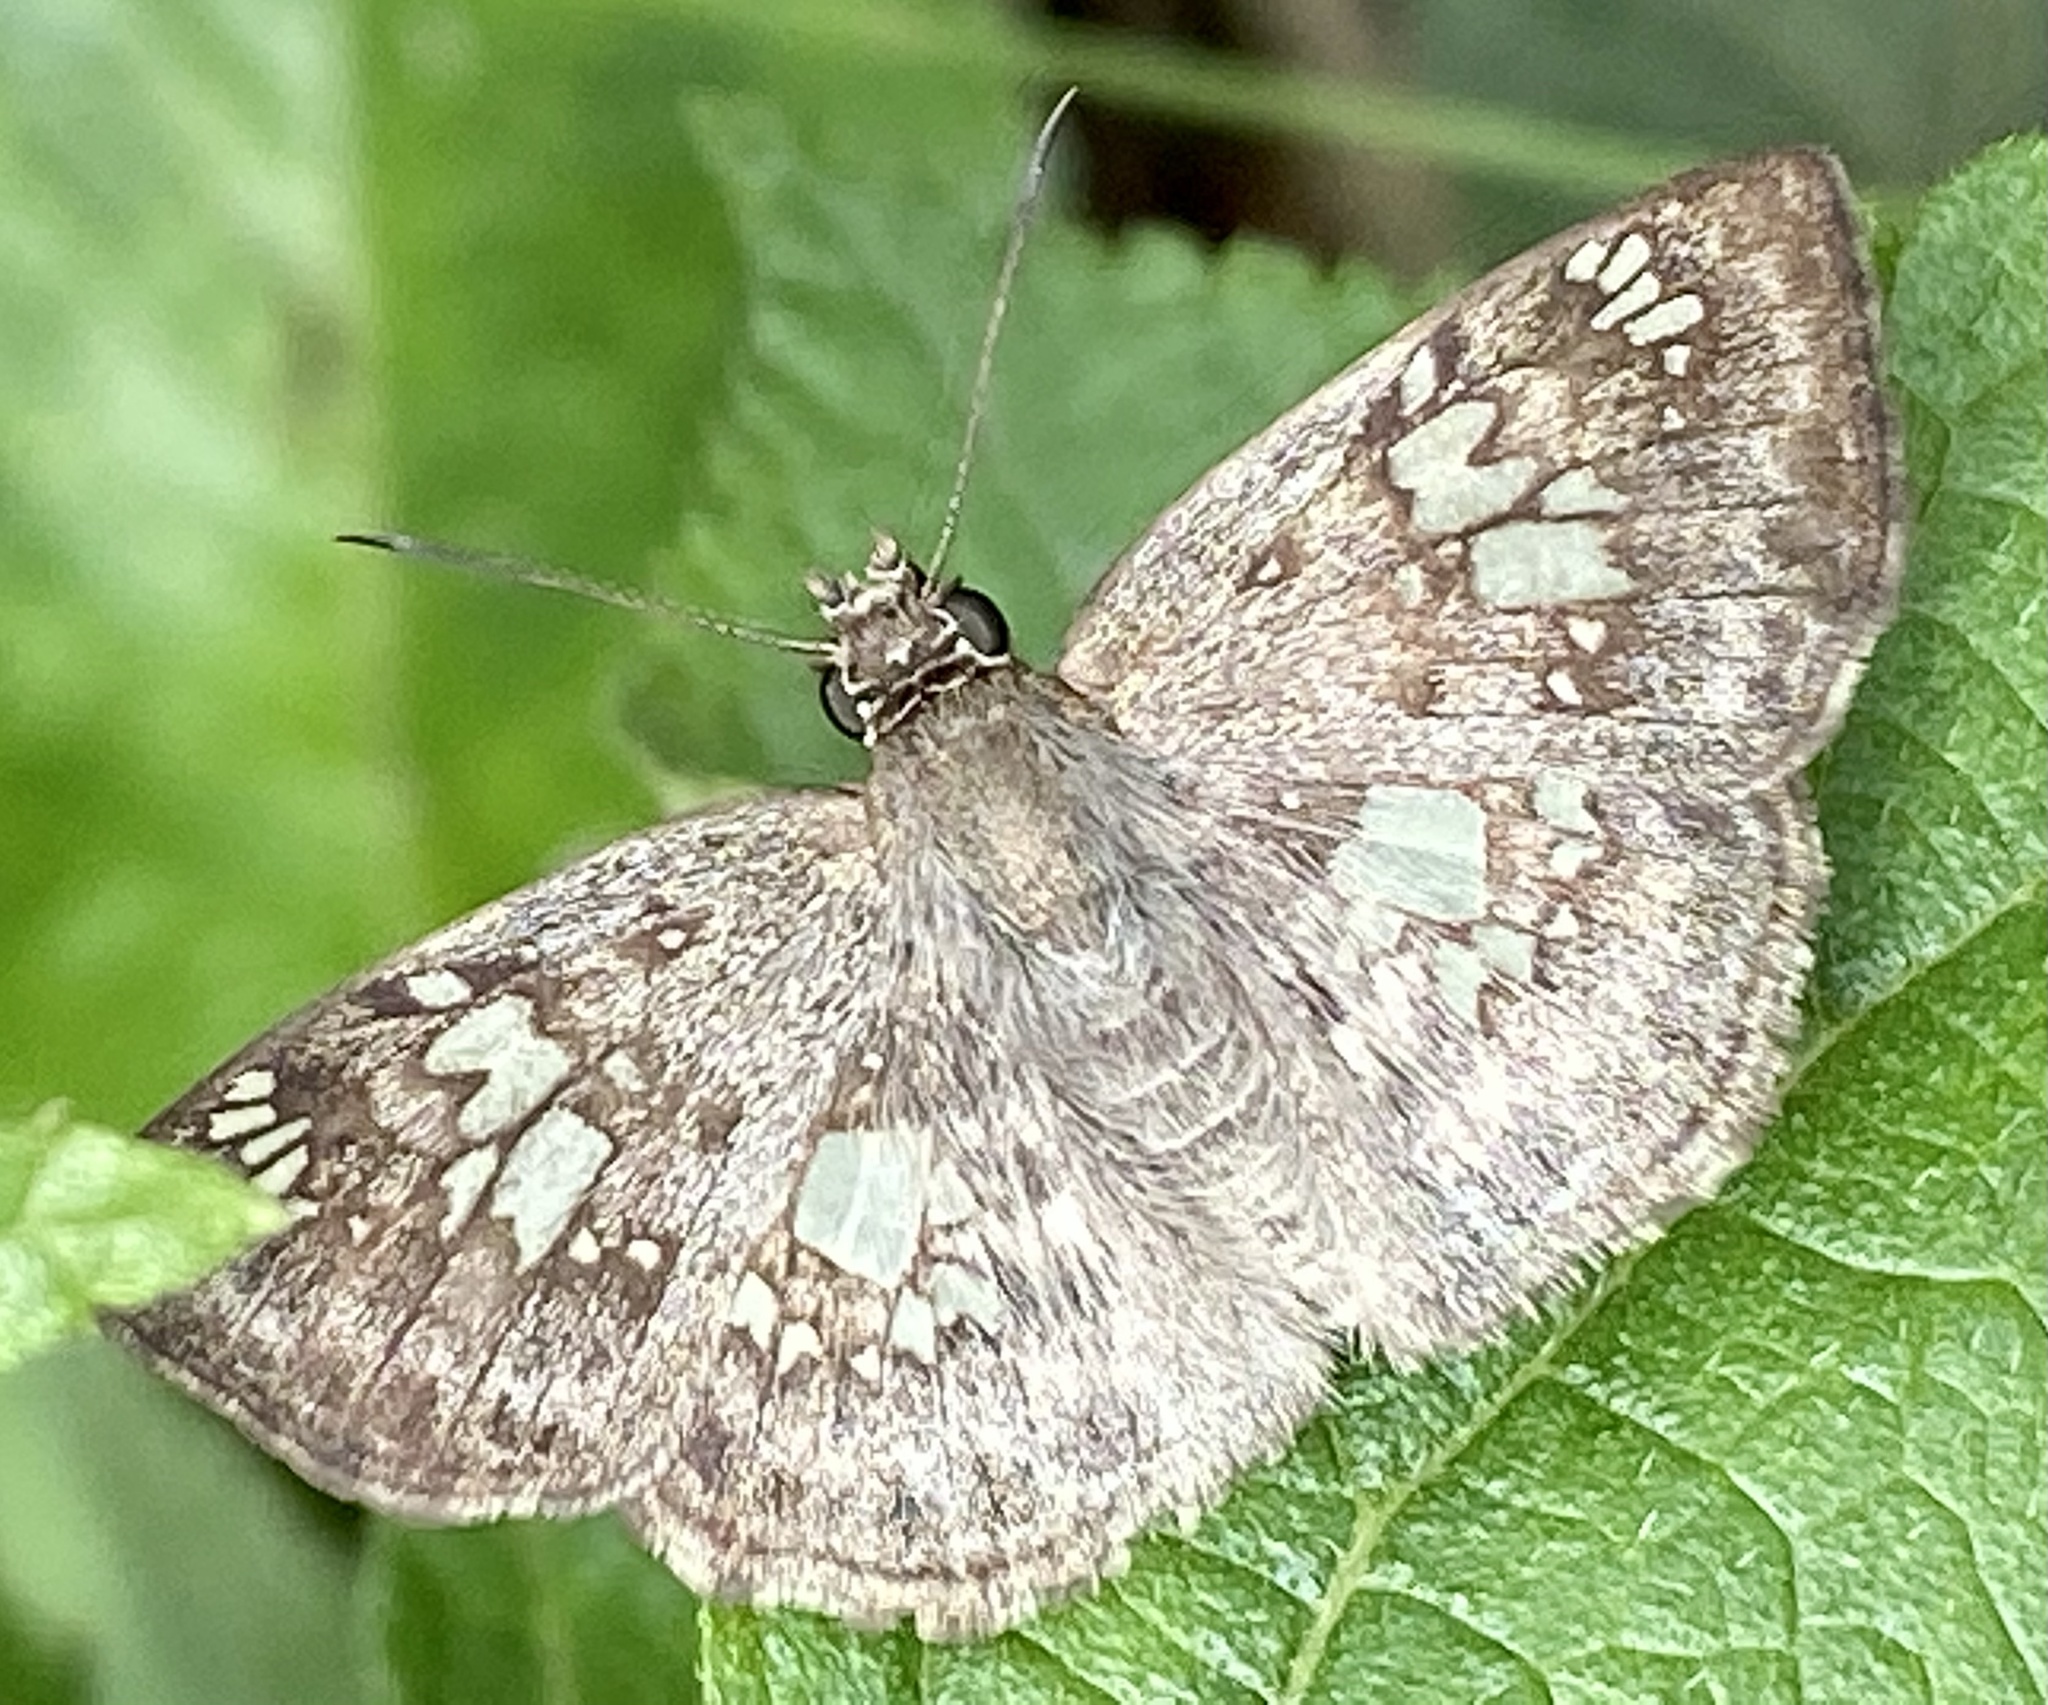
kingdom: Animalia
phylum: Arthropoda
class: Insecta
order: Lepidoptera
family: Hesperiidae
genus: Xenophanes
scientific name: Xenophanes tryxus
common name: Glassy-winged skipper
